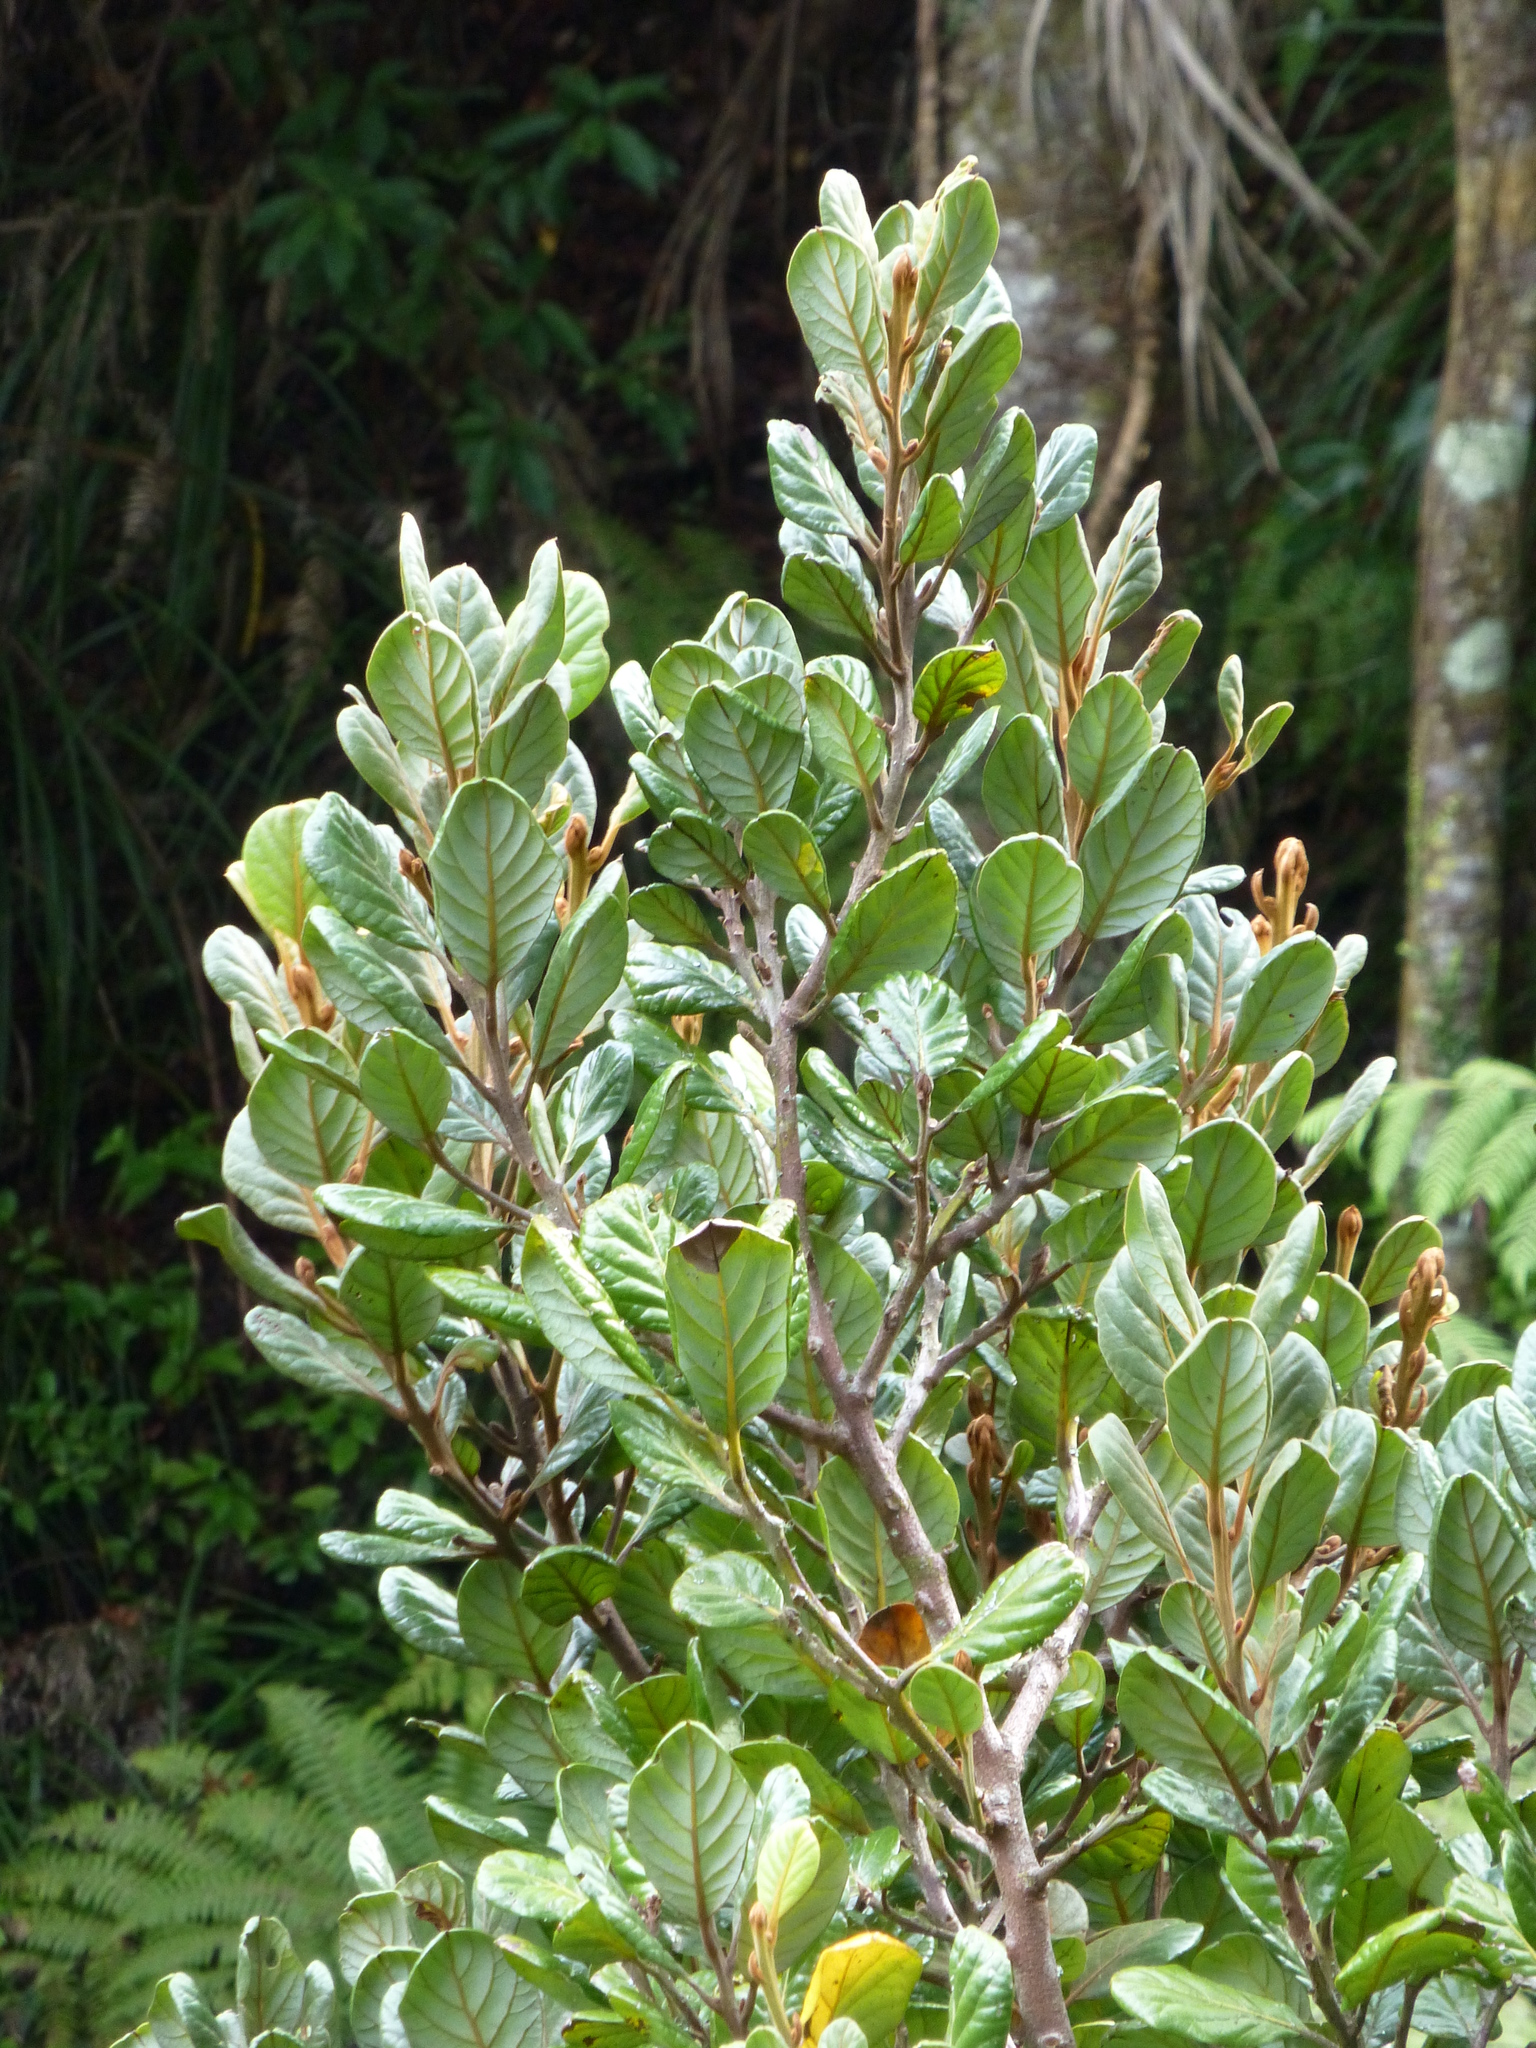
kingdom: Plantae
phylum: Tracheophyta
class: Magnoliopsida
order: Laurales
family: Lauraceae
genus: Beilschmiedia
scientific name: Beilschmiedia tarairi
